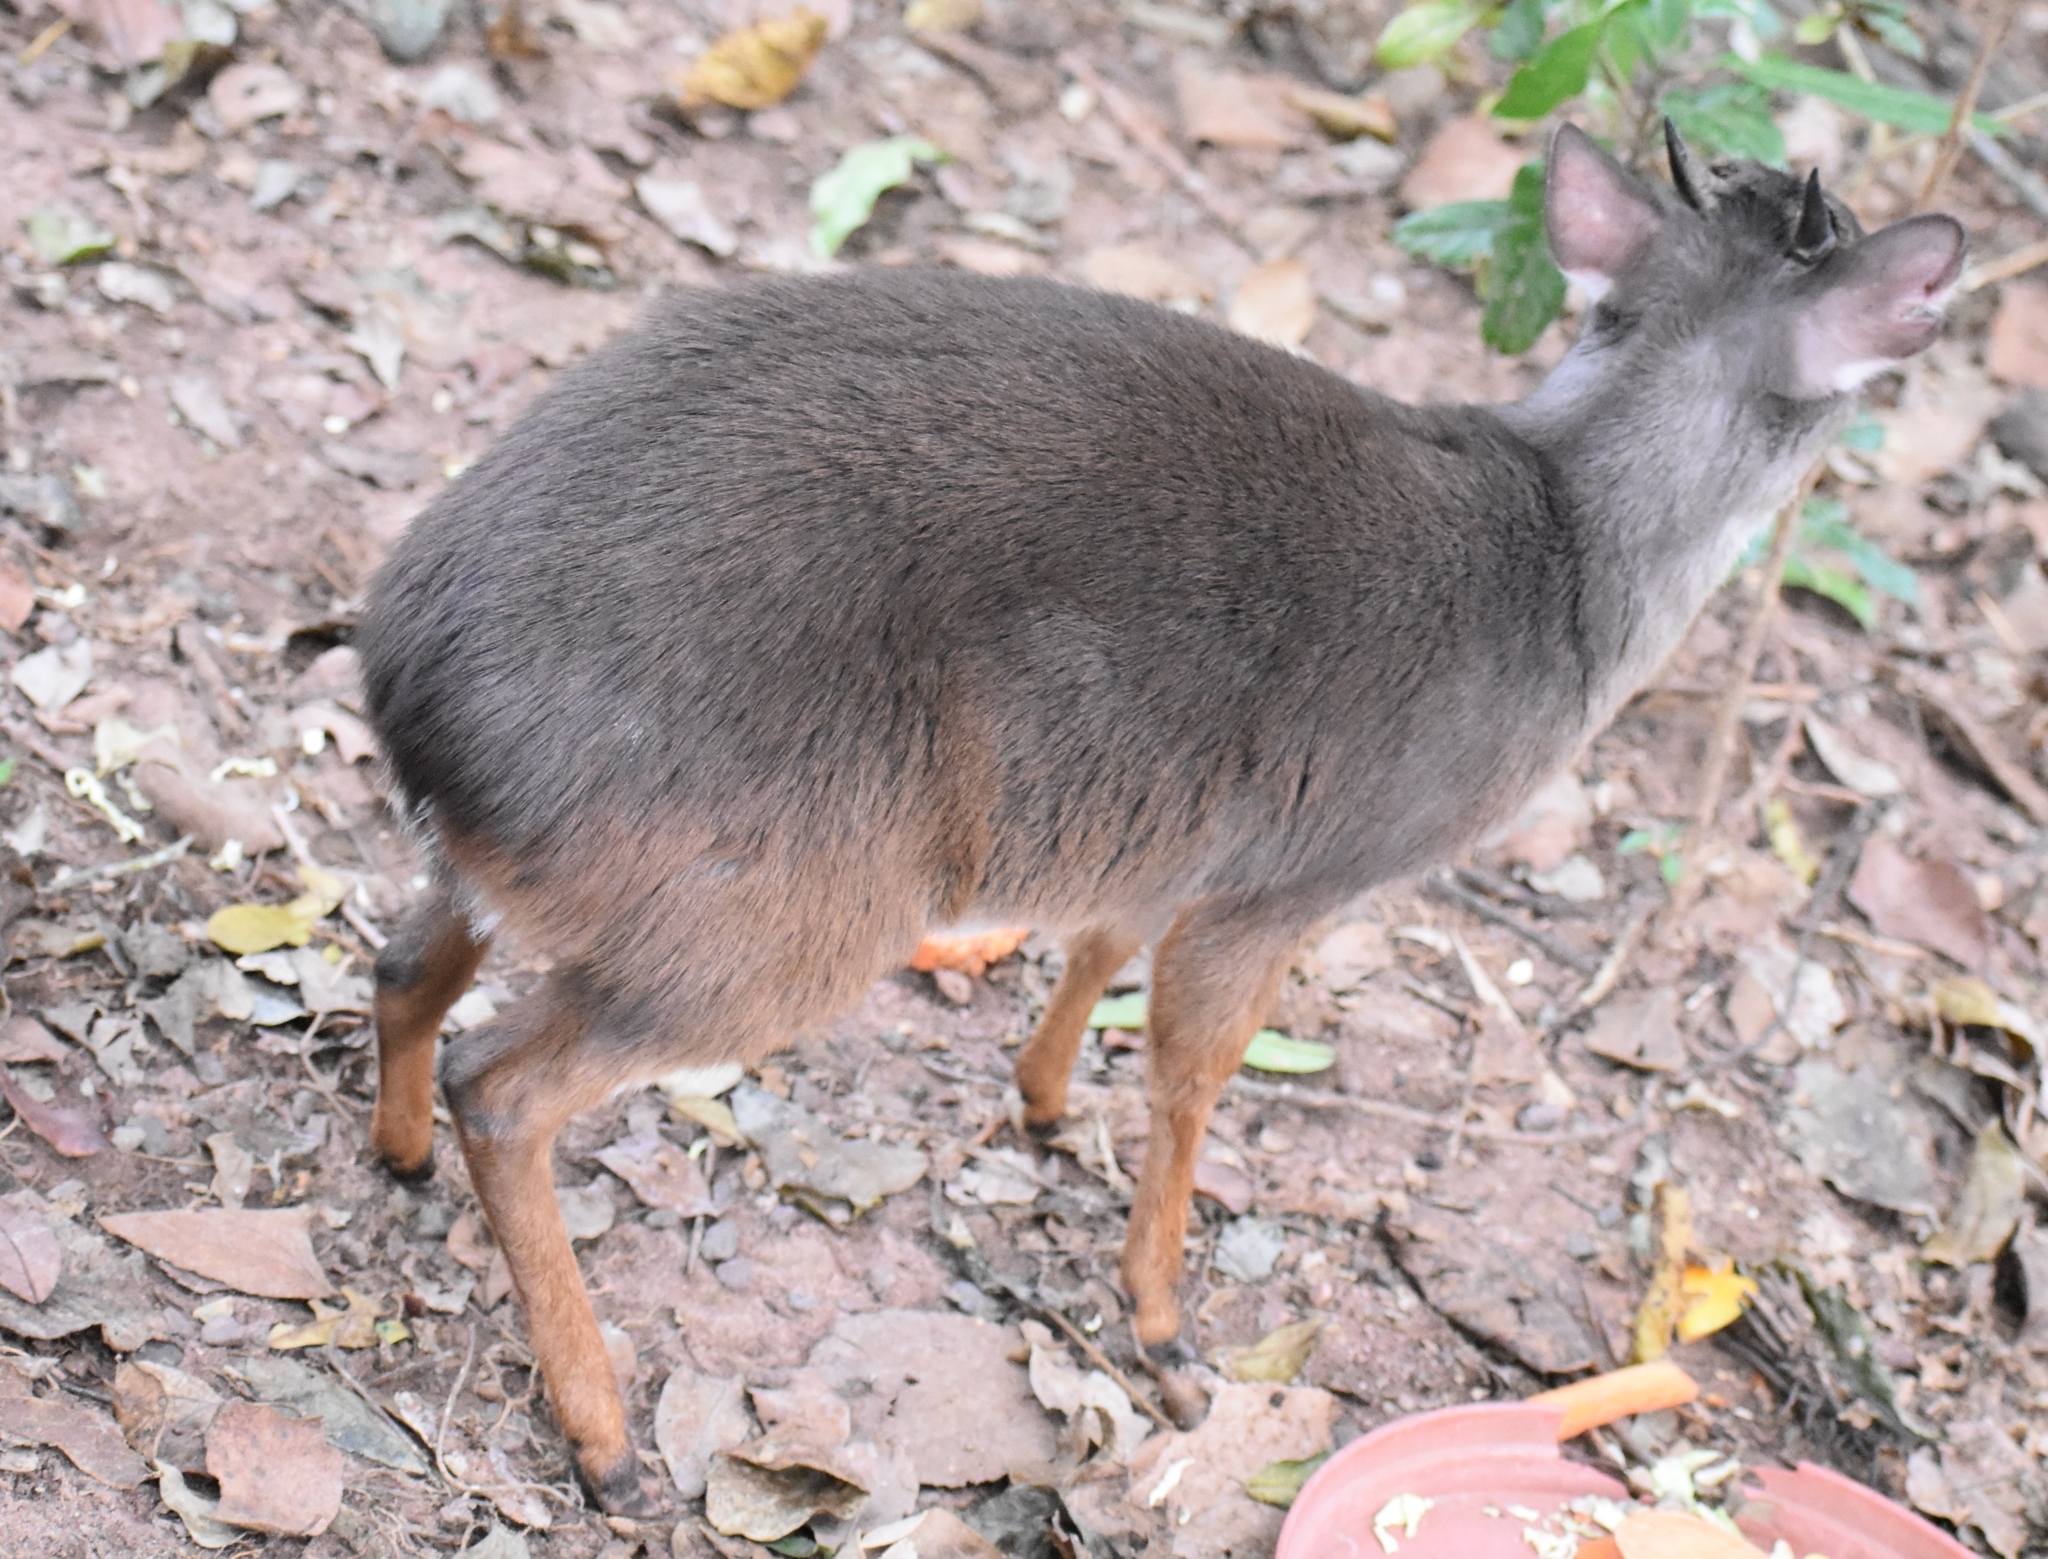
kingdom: Animalia
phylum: Chordata
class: Mammalia
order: Artiodactyla
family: Bovidae
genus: Philantomba
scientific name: Philantomba monticola
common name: Blue duiker
